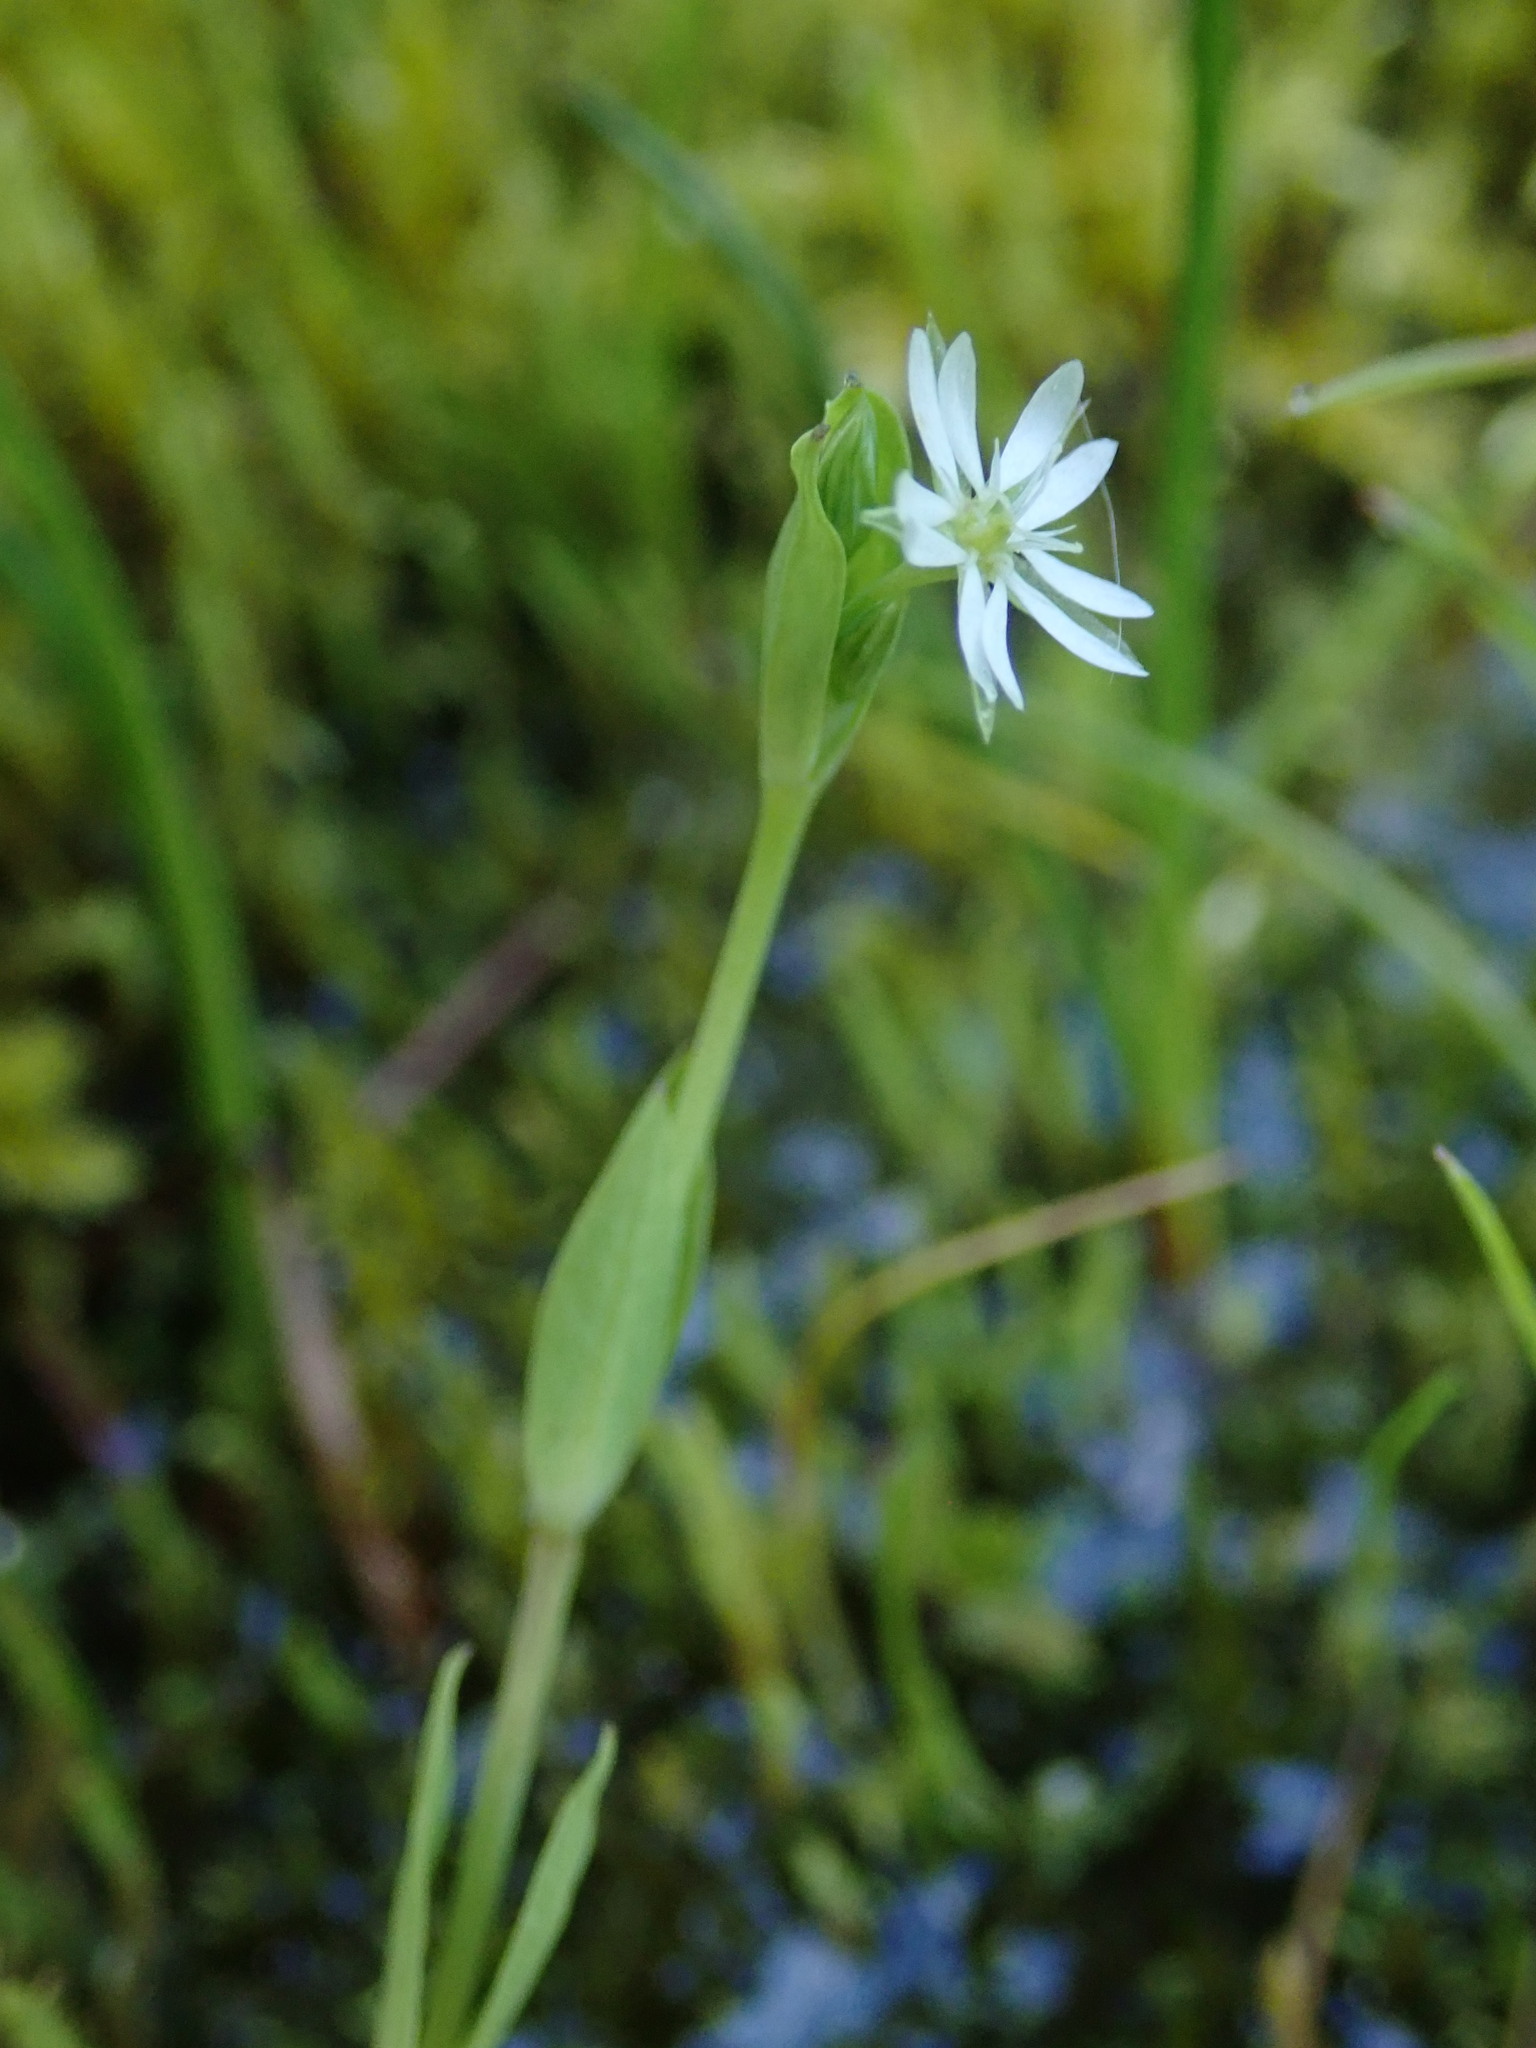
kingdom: Plantae
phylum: Tracheophyta
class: Magnoliopsida
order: Caryophyllales
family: Caryophyllaceae
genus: Stellaria
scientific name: Stellaria alsine
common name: Bog stitchwort
